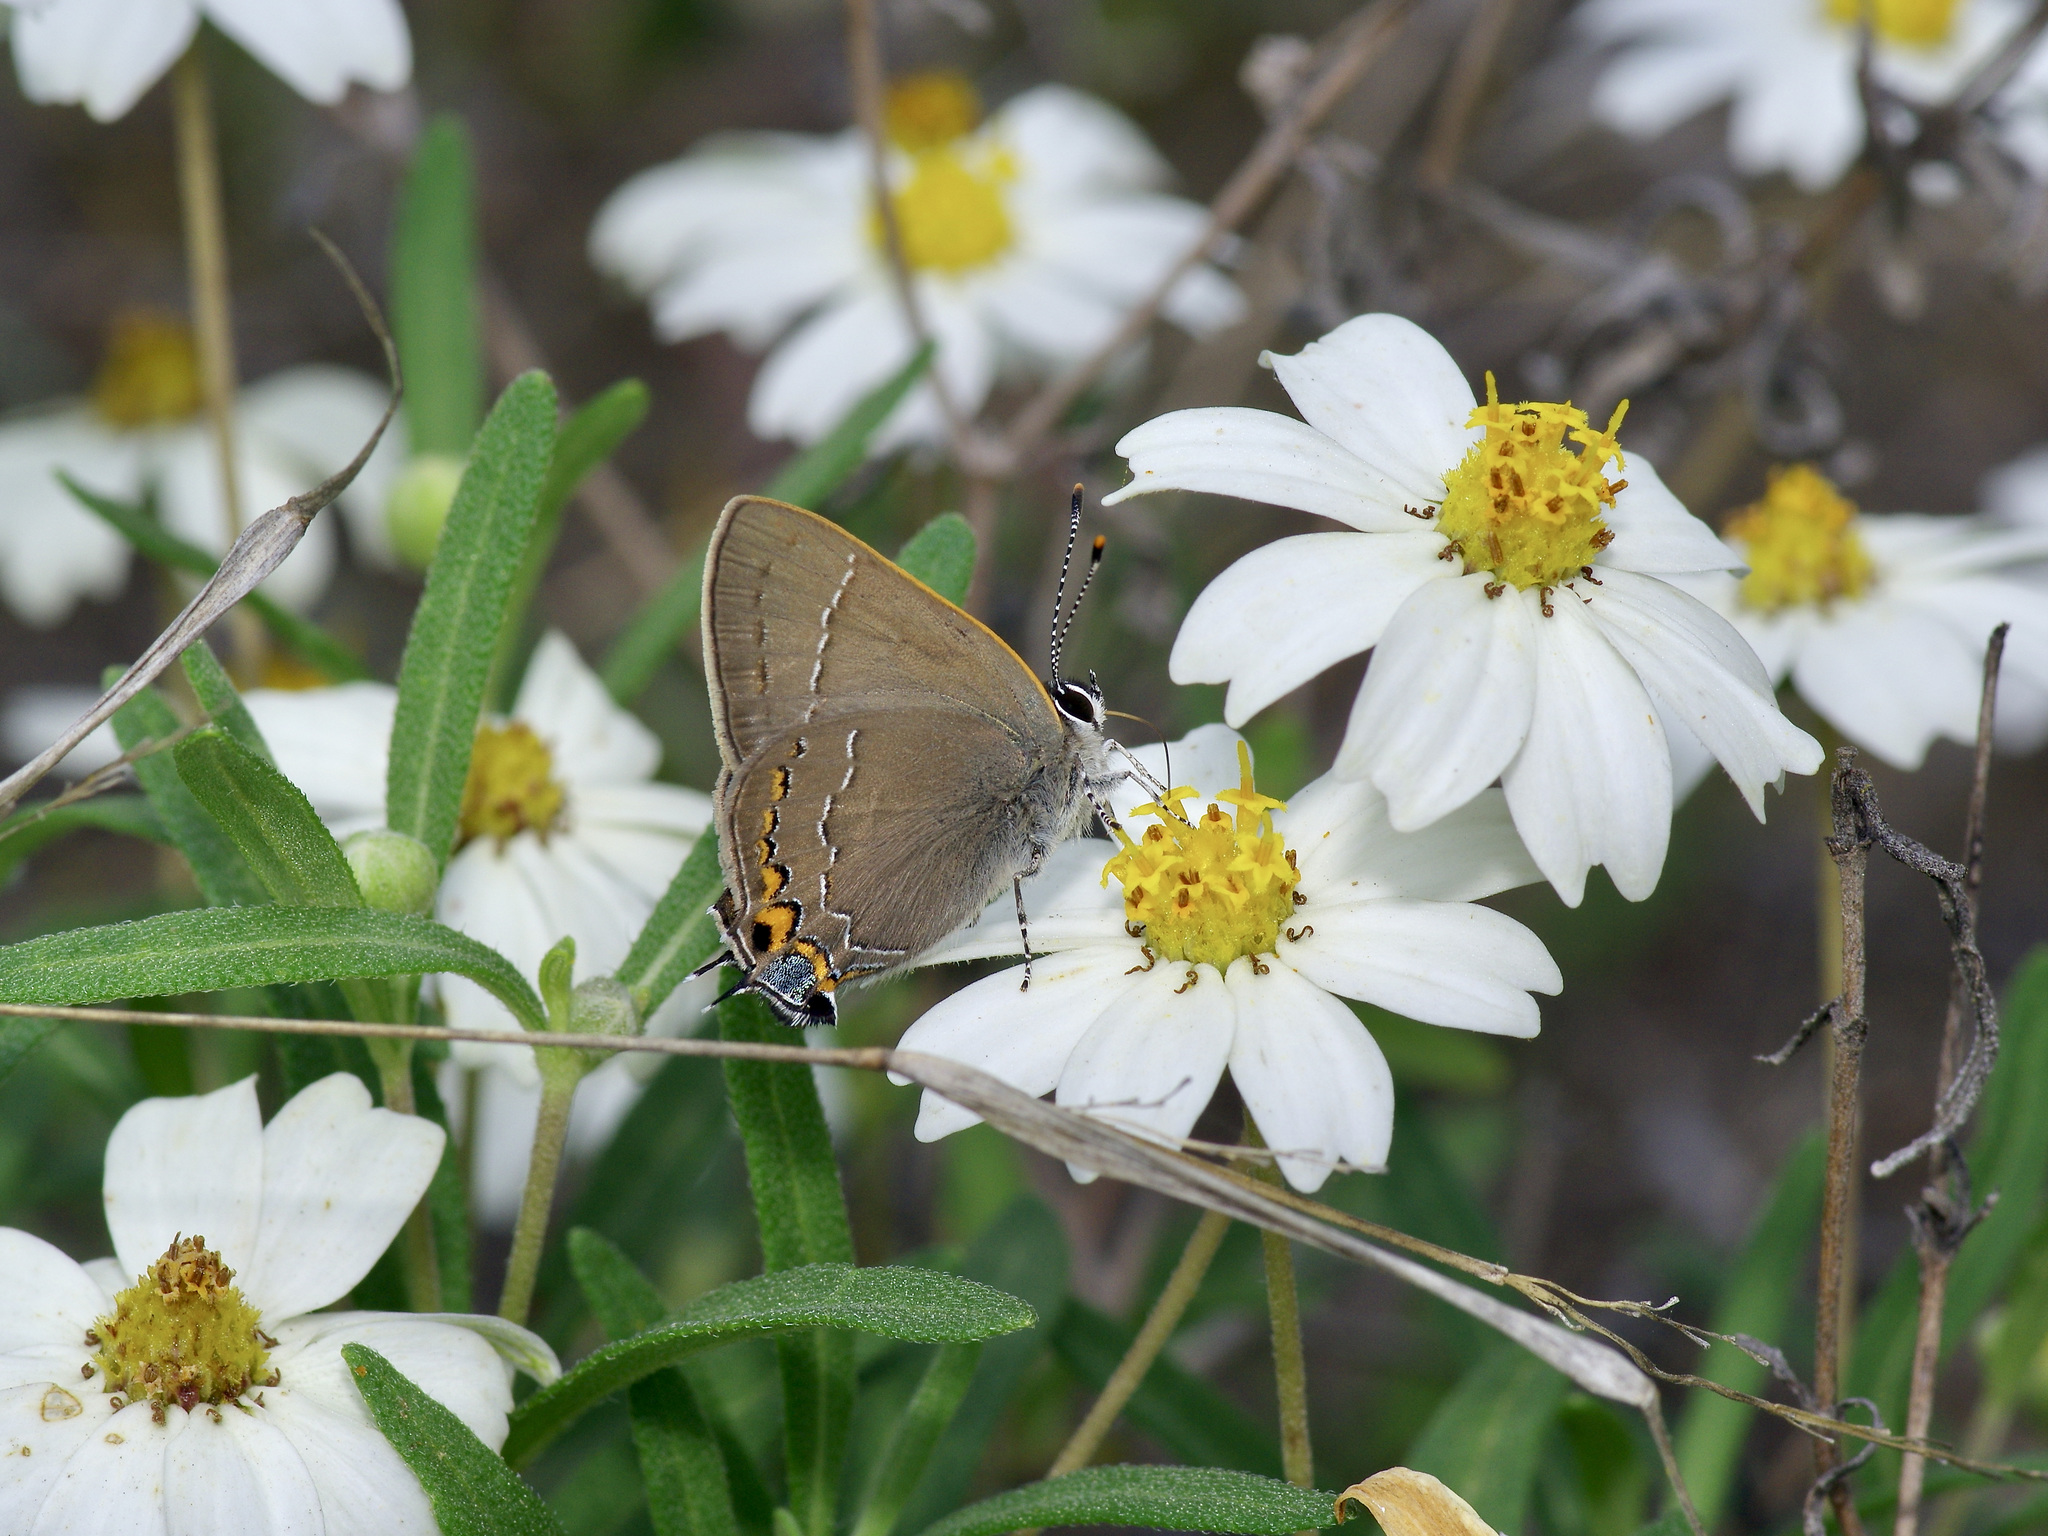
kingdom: Animalia
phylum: Arthropoda
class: Insecta
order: Lepidoptera
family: Lycaenidae
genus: Fixsenia
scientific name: Fixsenia favonius
